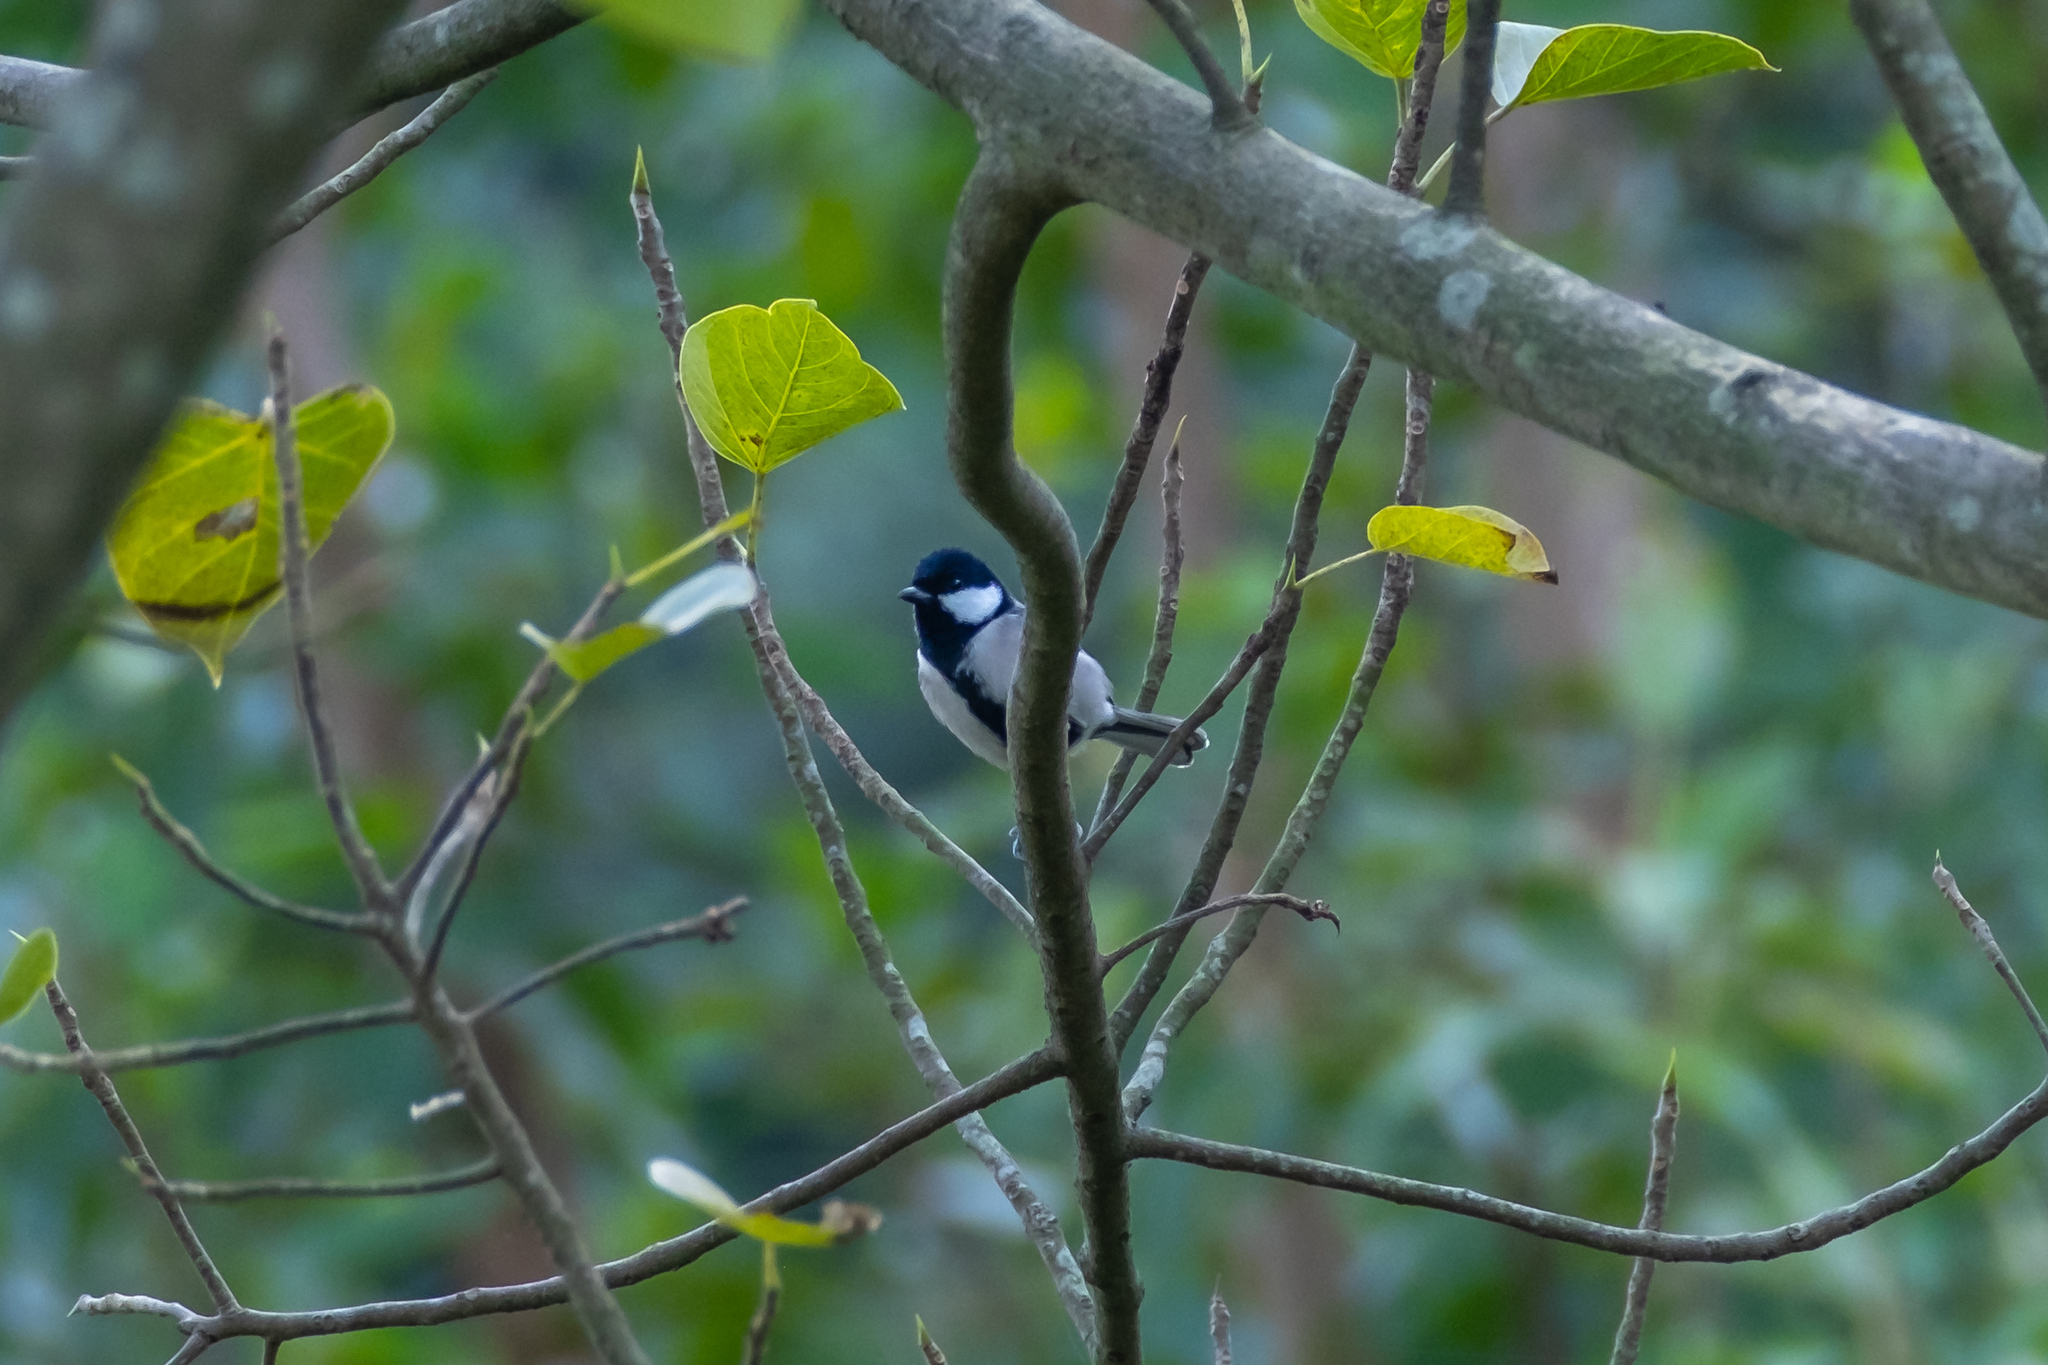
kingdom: Animalia
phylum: Chordata
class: Aves
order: Passeriformes
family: Paridae
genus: Parus
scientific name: Parus cinereus
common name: Cinereous tit
